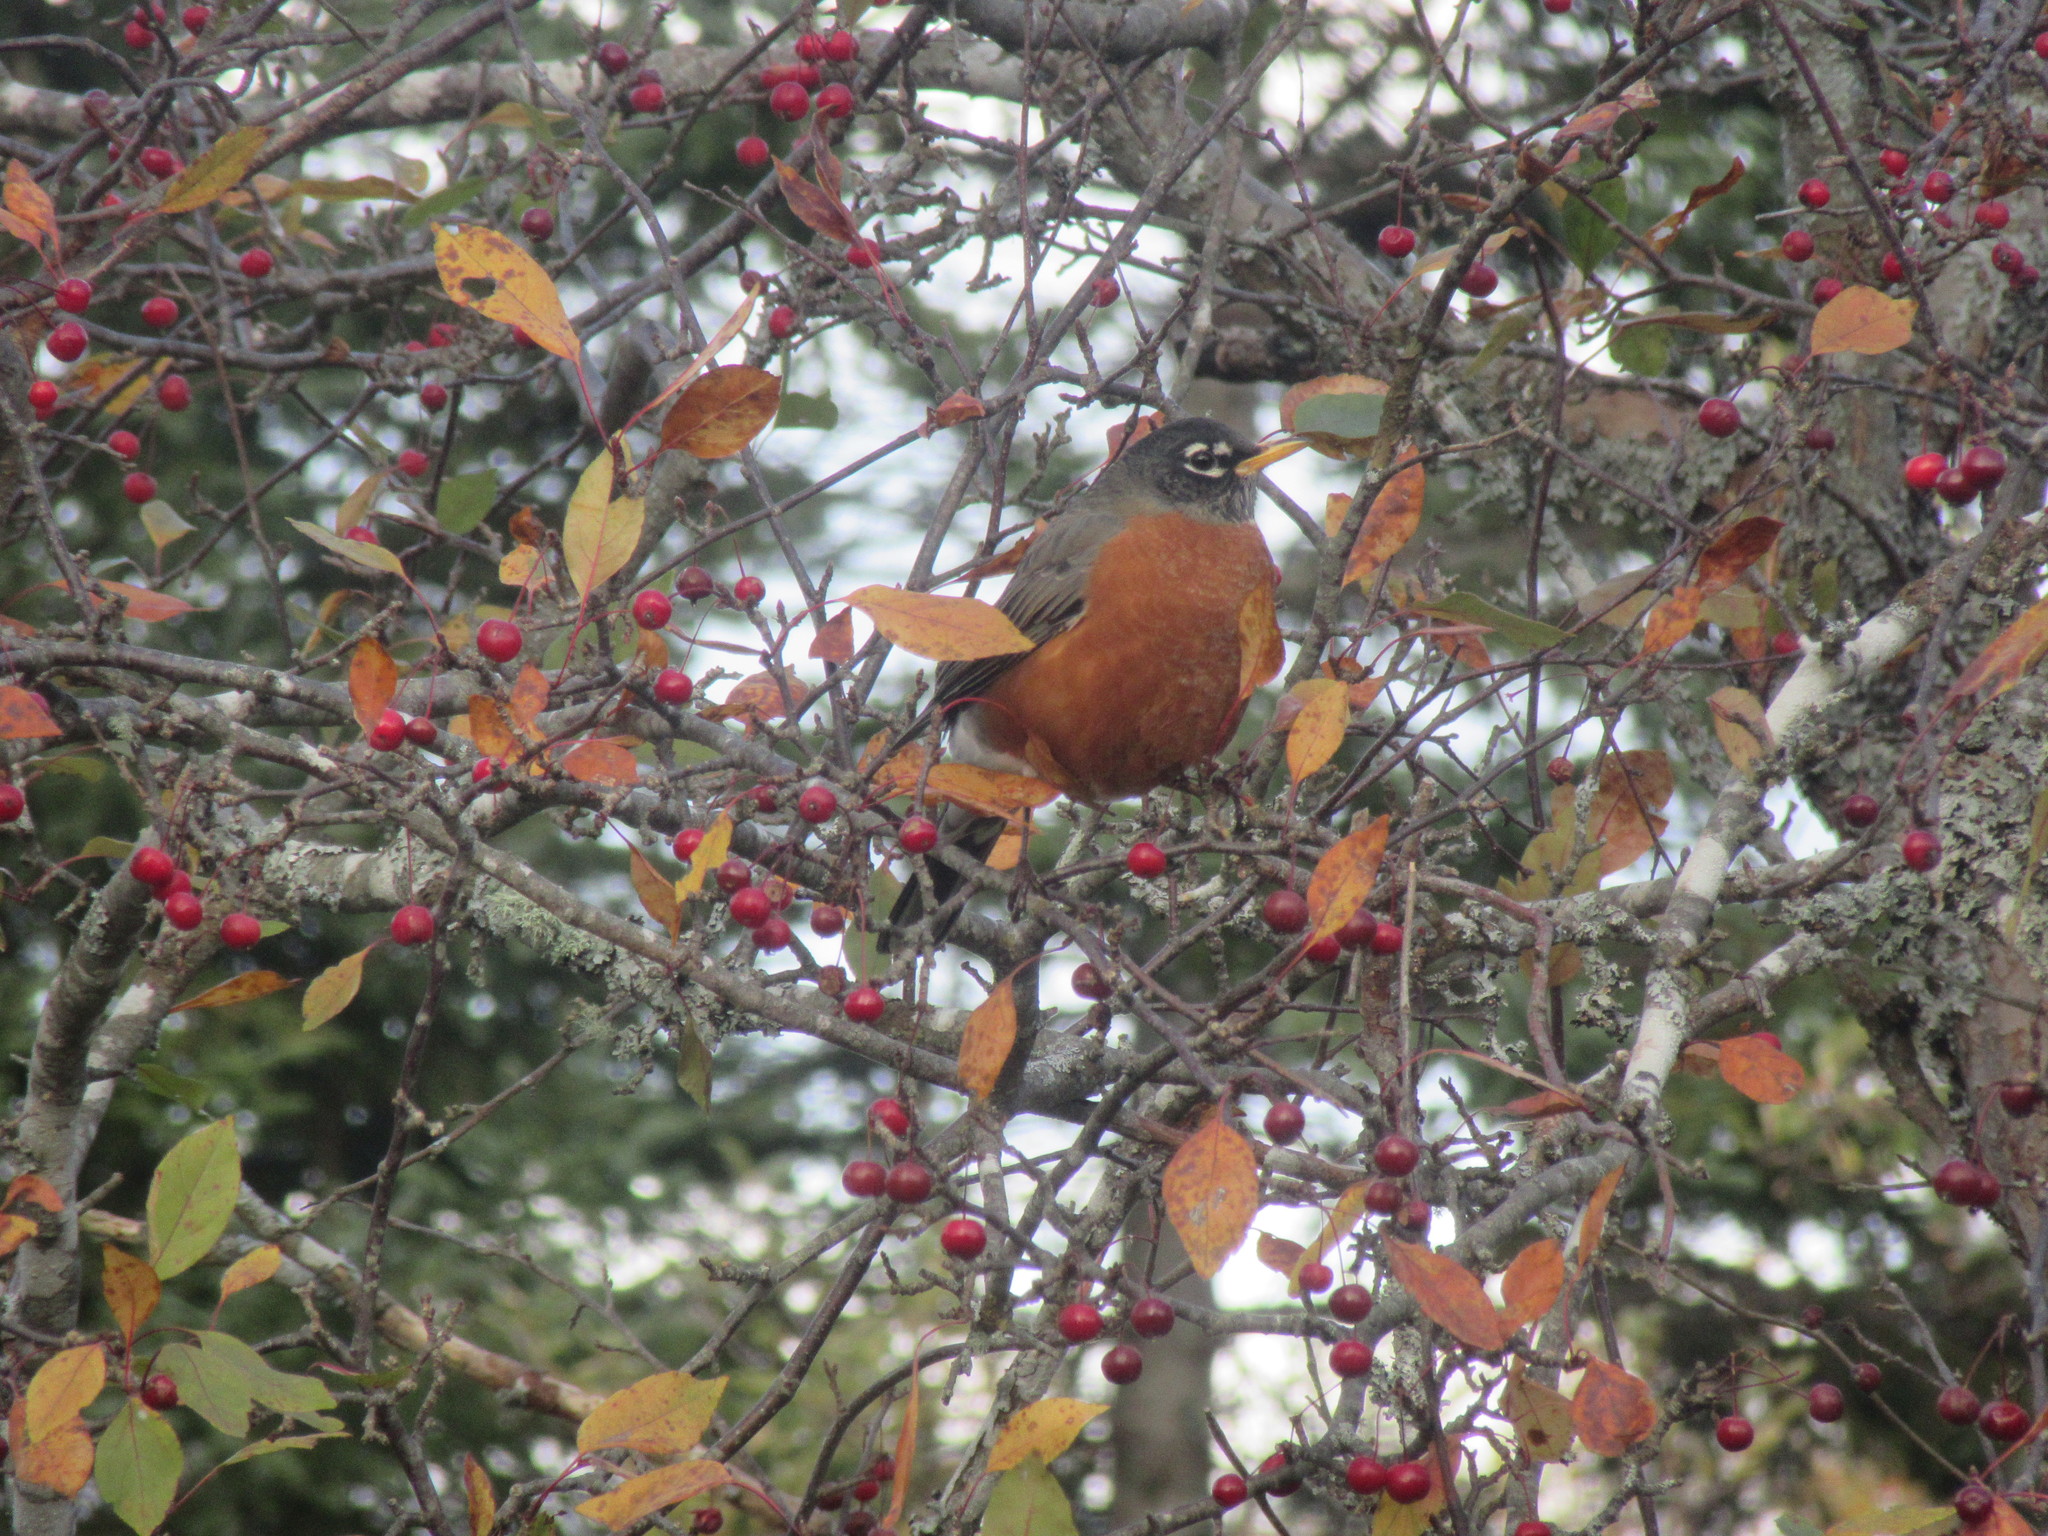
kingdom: Animalia
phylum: Chordata
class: Aves
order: Passeriformes
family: Turdidae
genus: Turdus
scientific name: Turdus migratorius
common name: American robin
